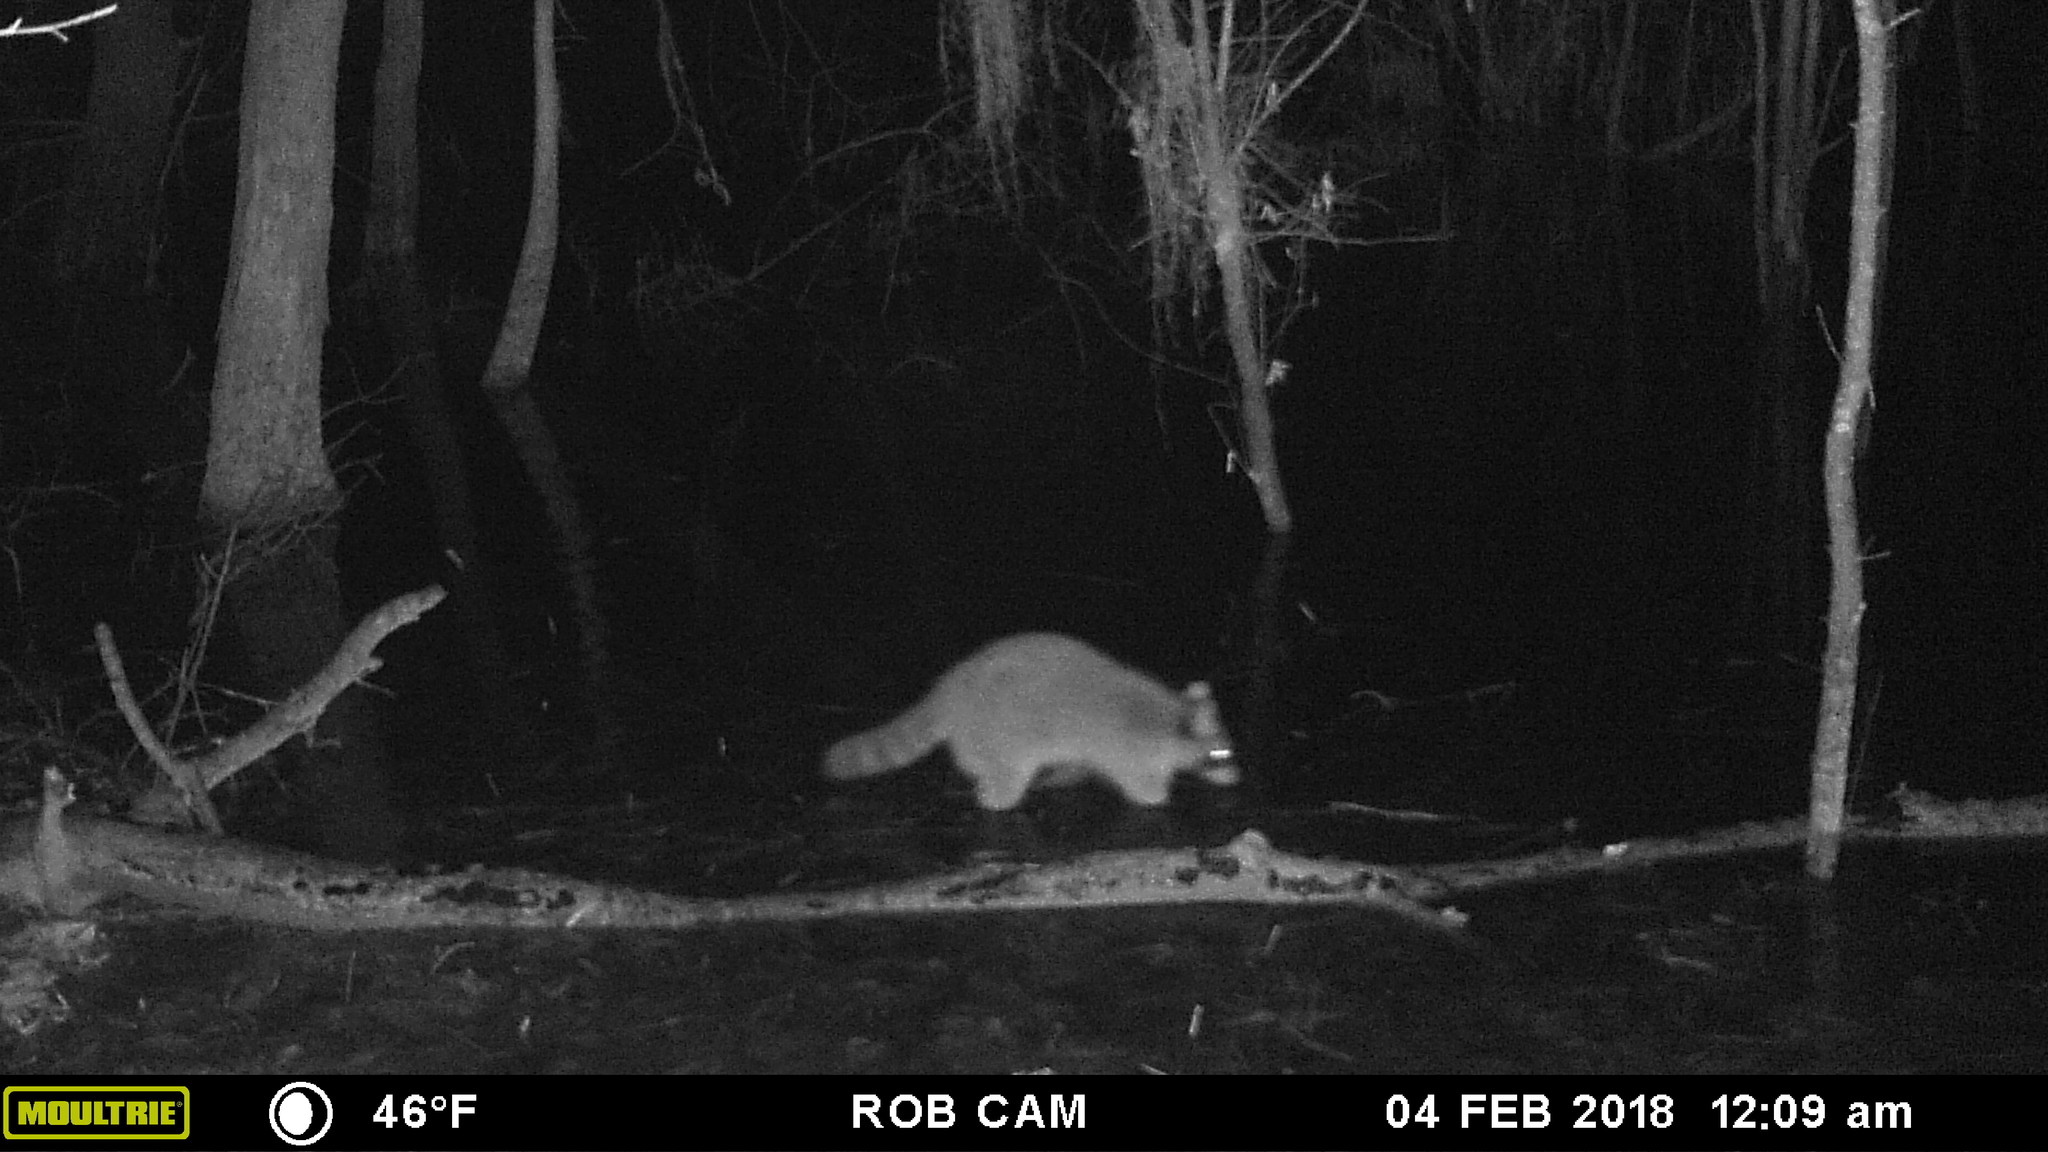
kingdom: Animalia
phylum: Chordata
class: Mammalia
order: Carnivora
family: Procyonidae
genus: Procyon
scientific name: Procyon lotor
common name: Raccoon
